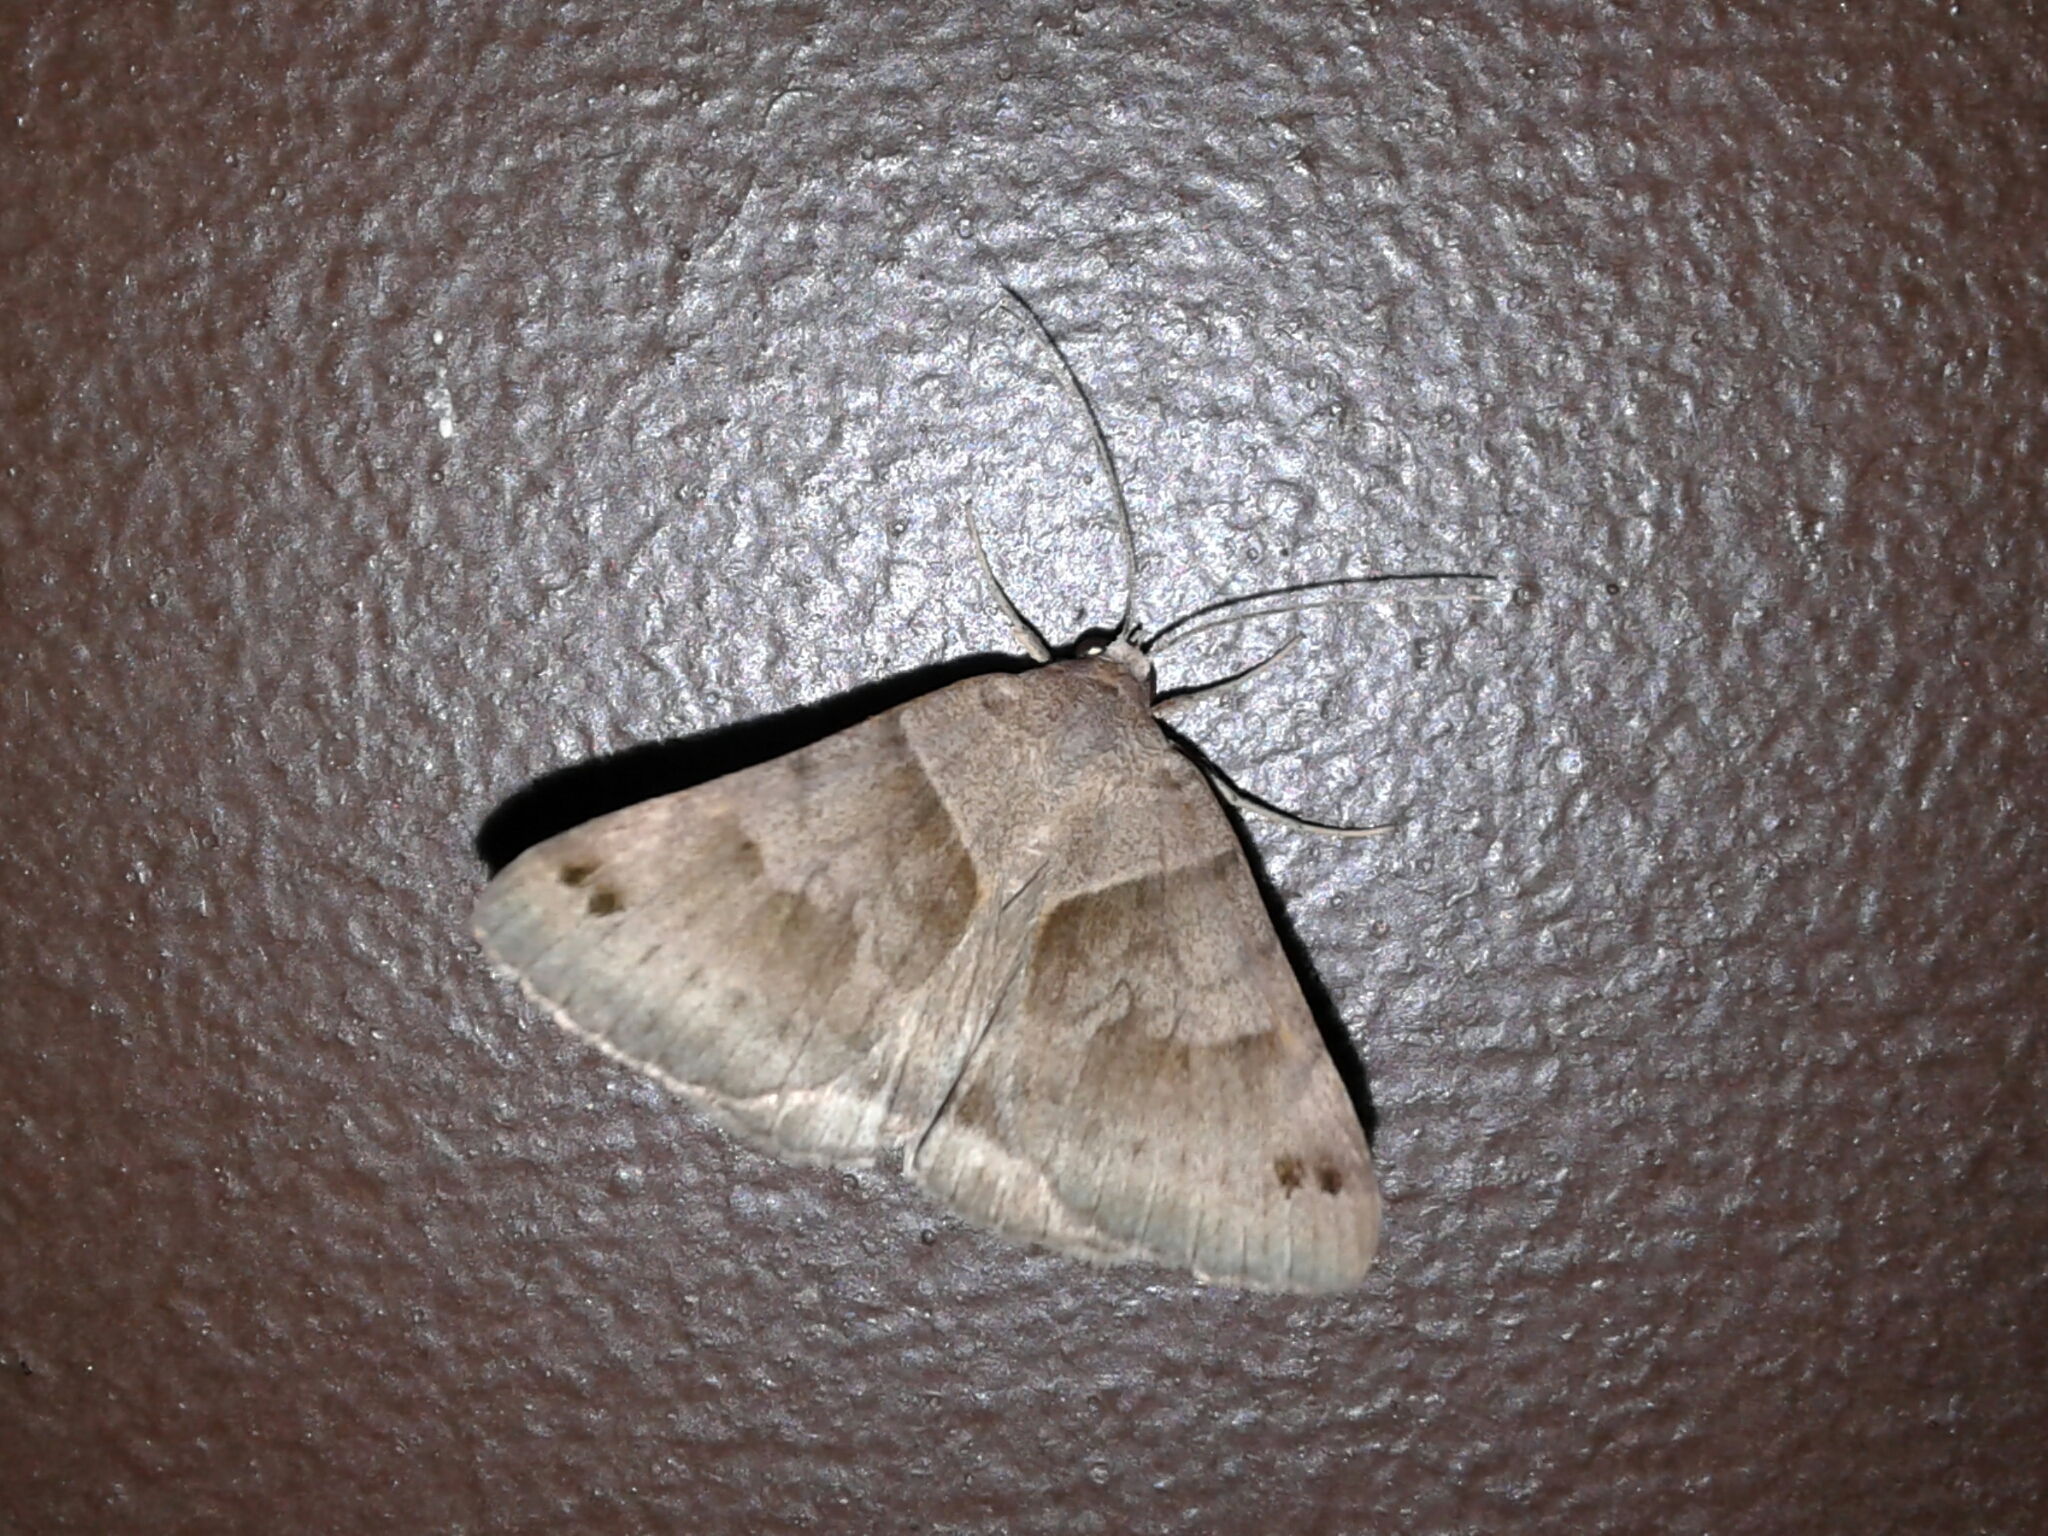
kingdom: Animalia
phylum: Arthropoda
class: Insecta
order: Lepidoptera
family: Erebidae
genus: Caenurgina
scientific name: Caenurgina erechtea
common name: Forage looper moth
